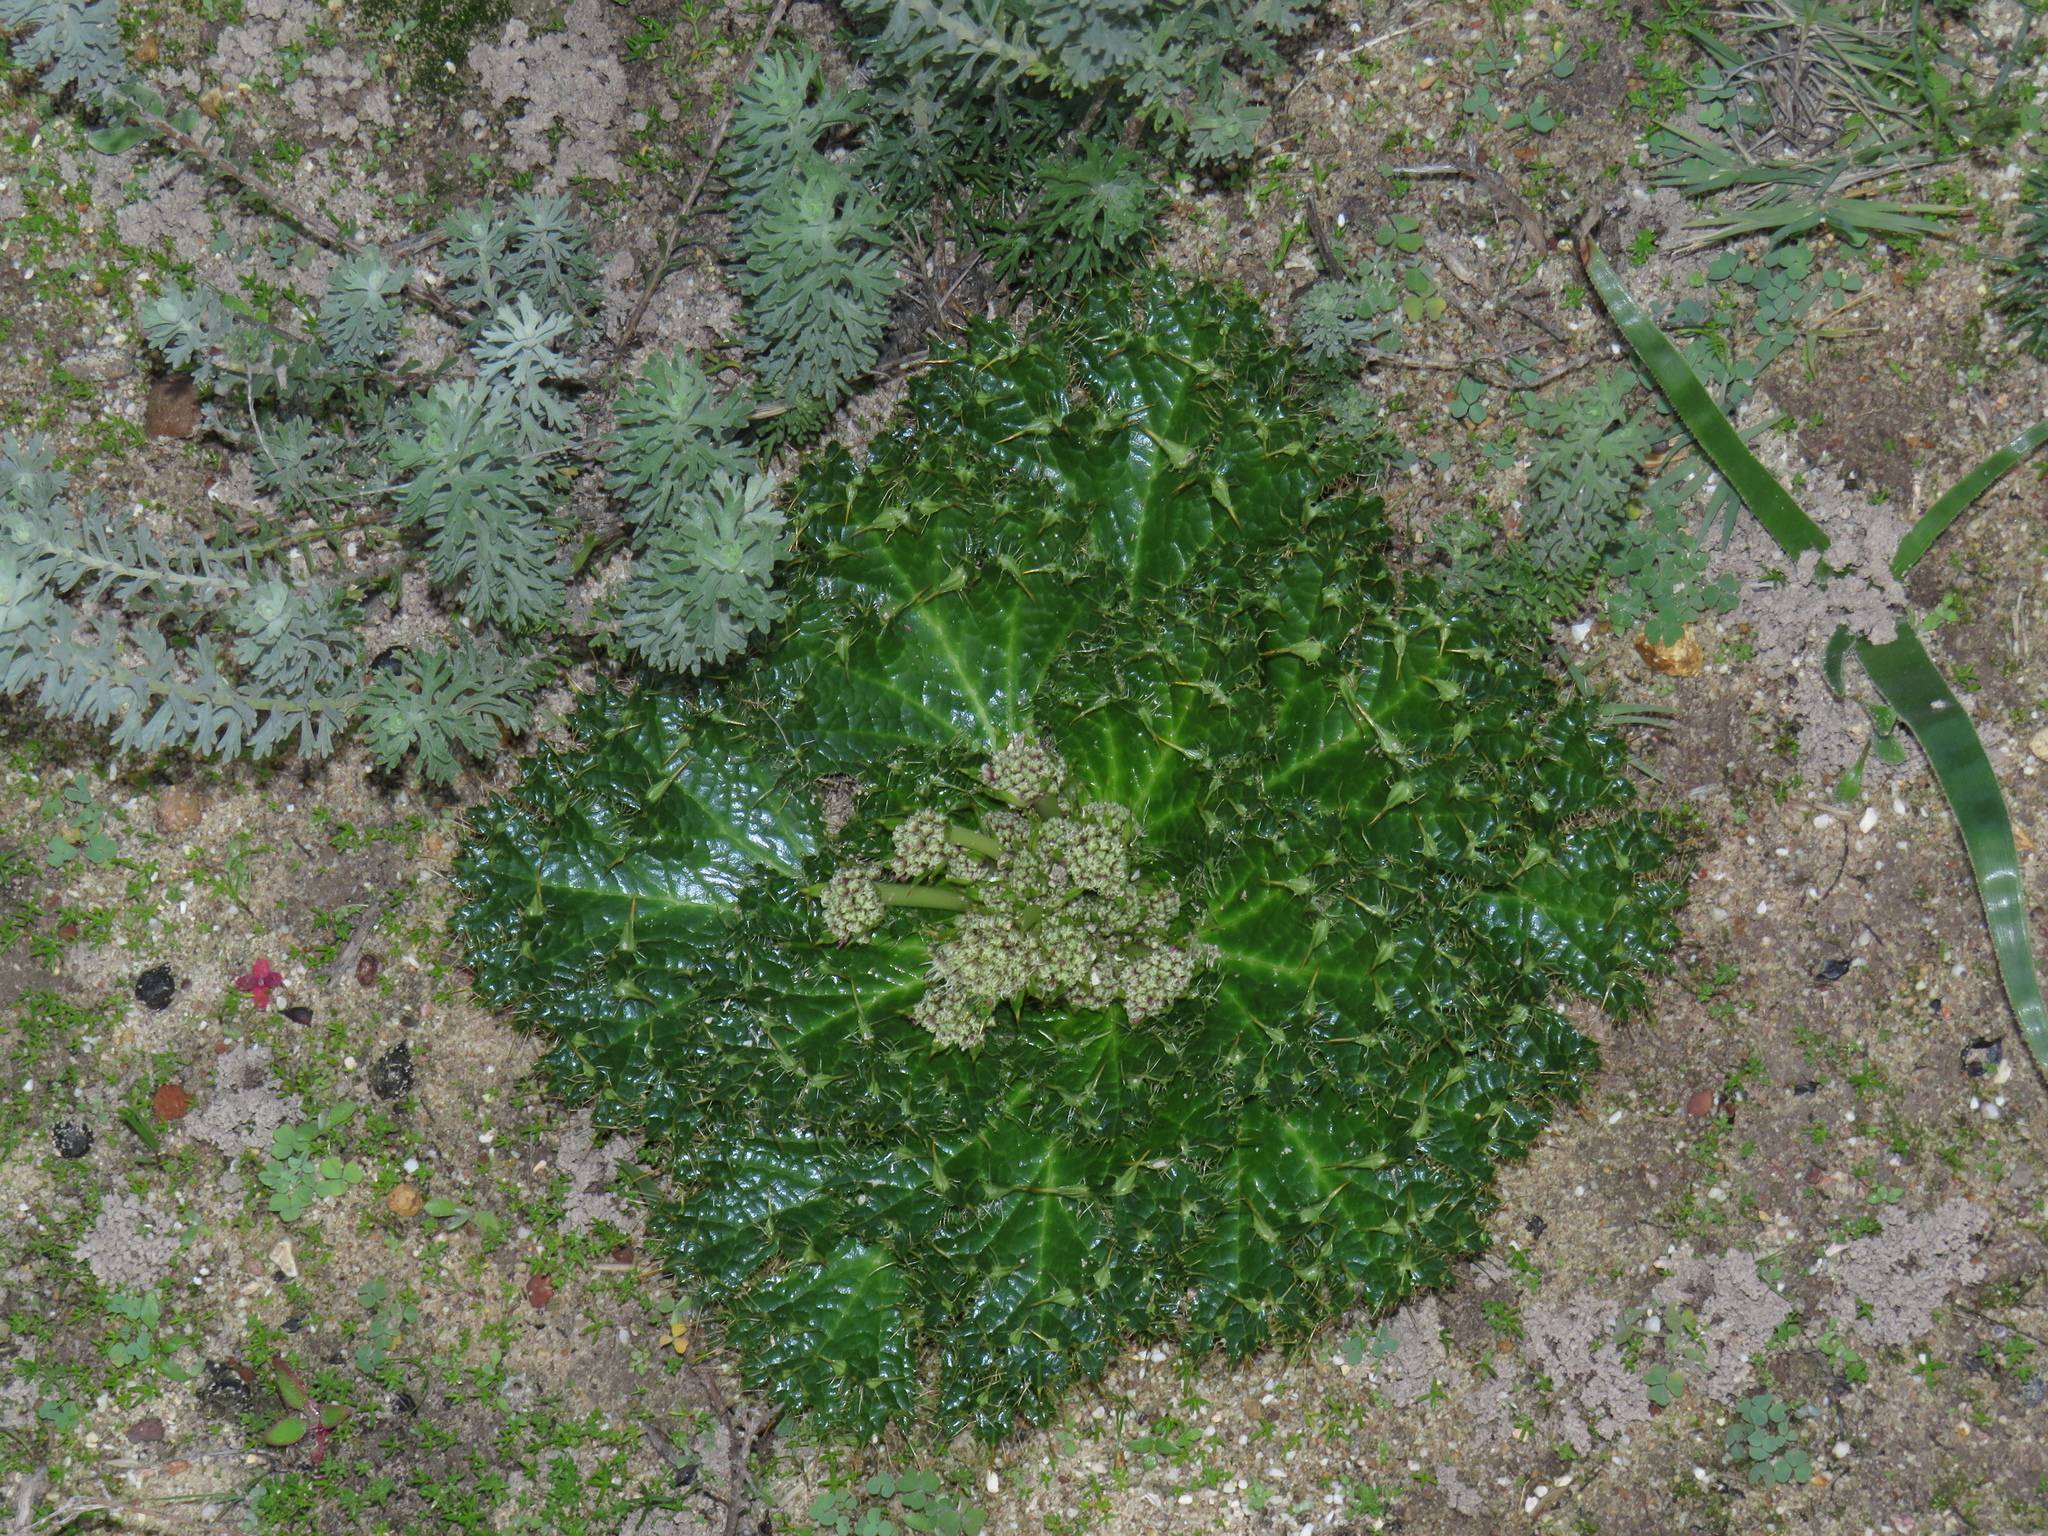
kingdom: Plantae
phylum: Tracheophyta
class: Magnoliopsida
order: Apiales
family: Apiaceae
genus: Arctopus
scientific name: Arctopus monacanthus
